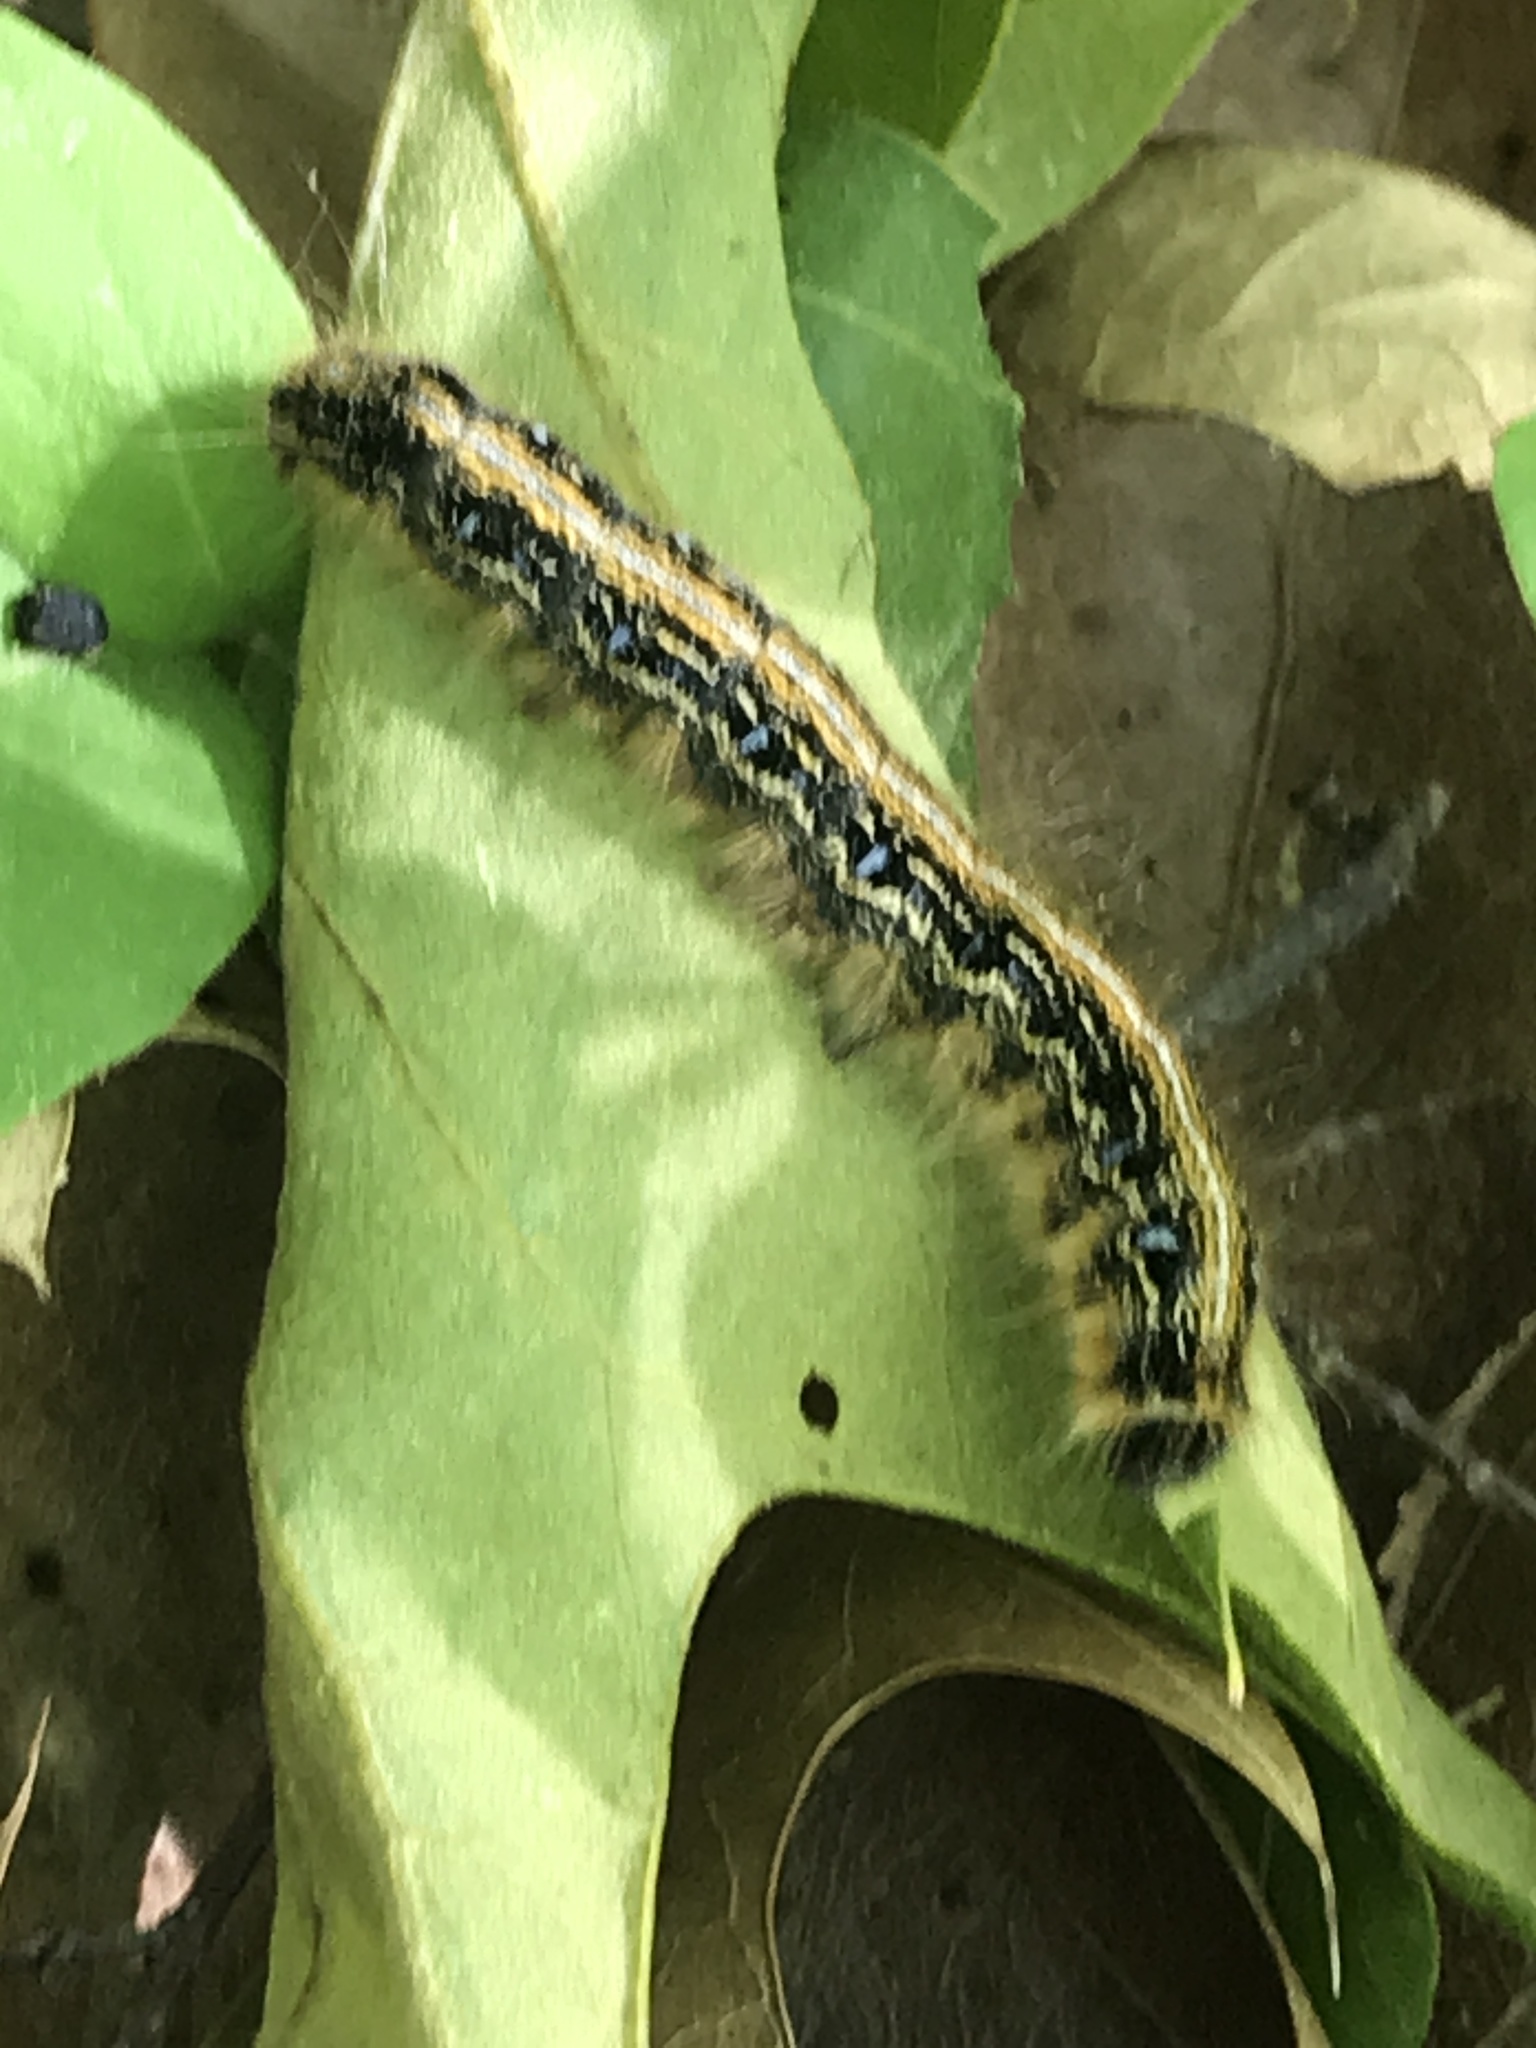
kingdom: Animalia
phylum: Arthropoda
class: Insecta
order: Lepidoptera
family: Lasiocampidae
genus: Malacosoma
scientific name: Malacosoma americana
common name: Eastern tent caterpillar moth
